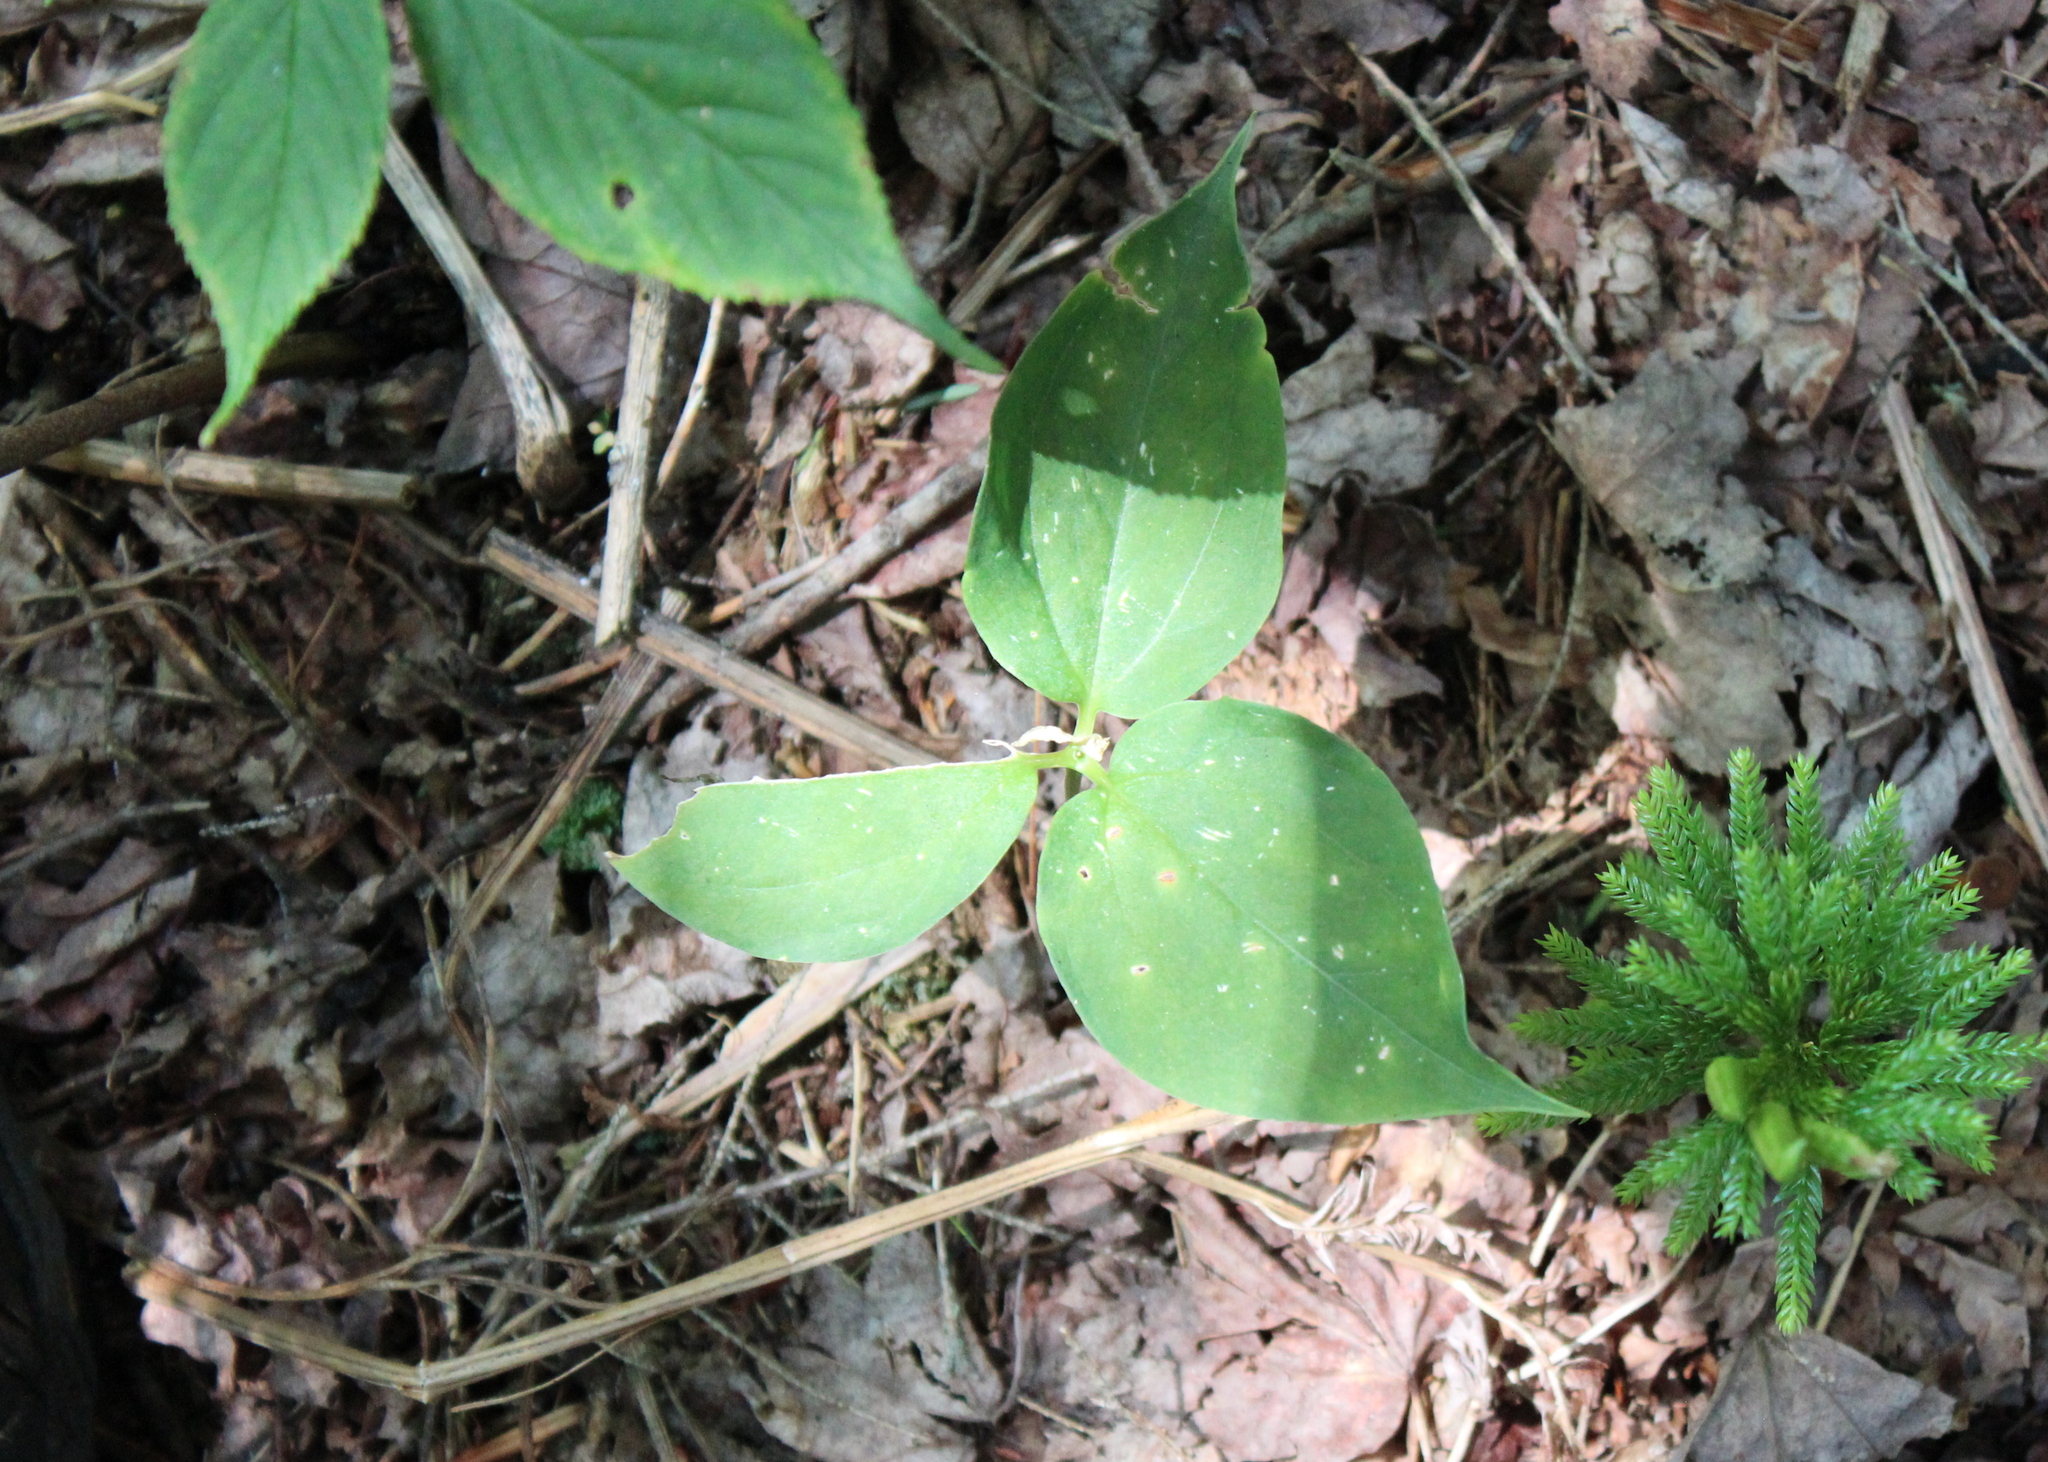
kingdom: Plantae
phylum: Tracheophyta
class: Liliopsida
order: Liliales
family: Melanthiaceae
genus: Trillium
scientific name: Trillium undulatum
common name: Paint trillium
